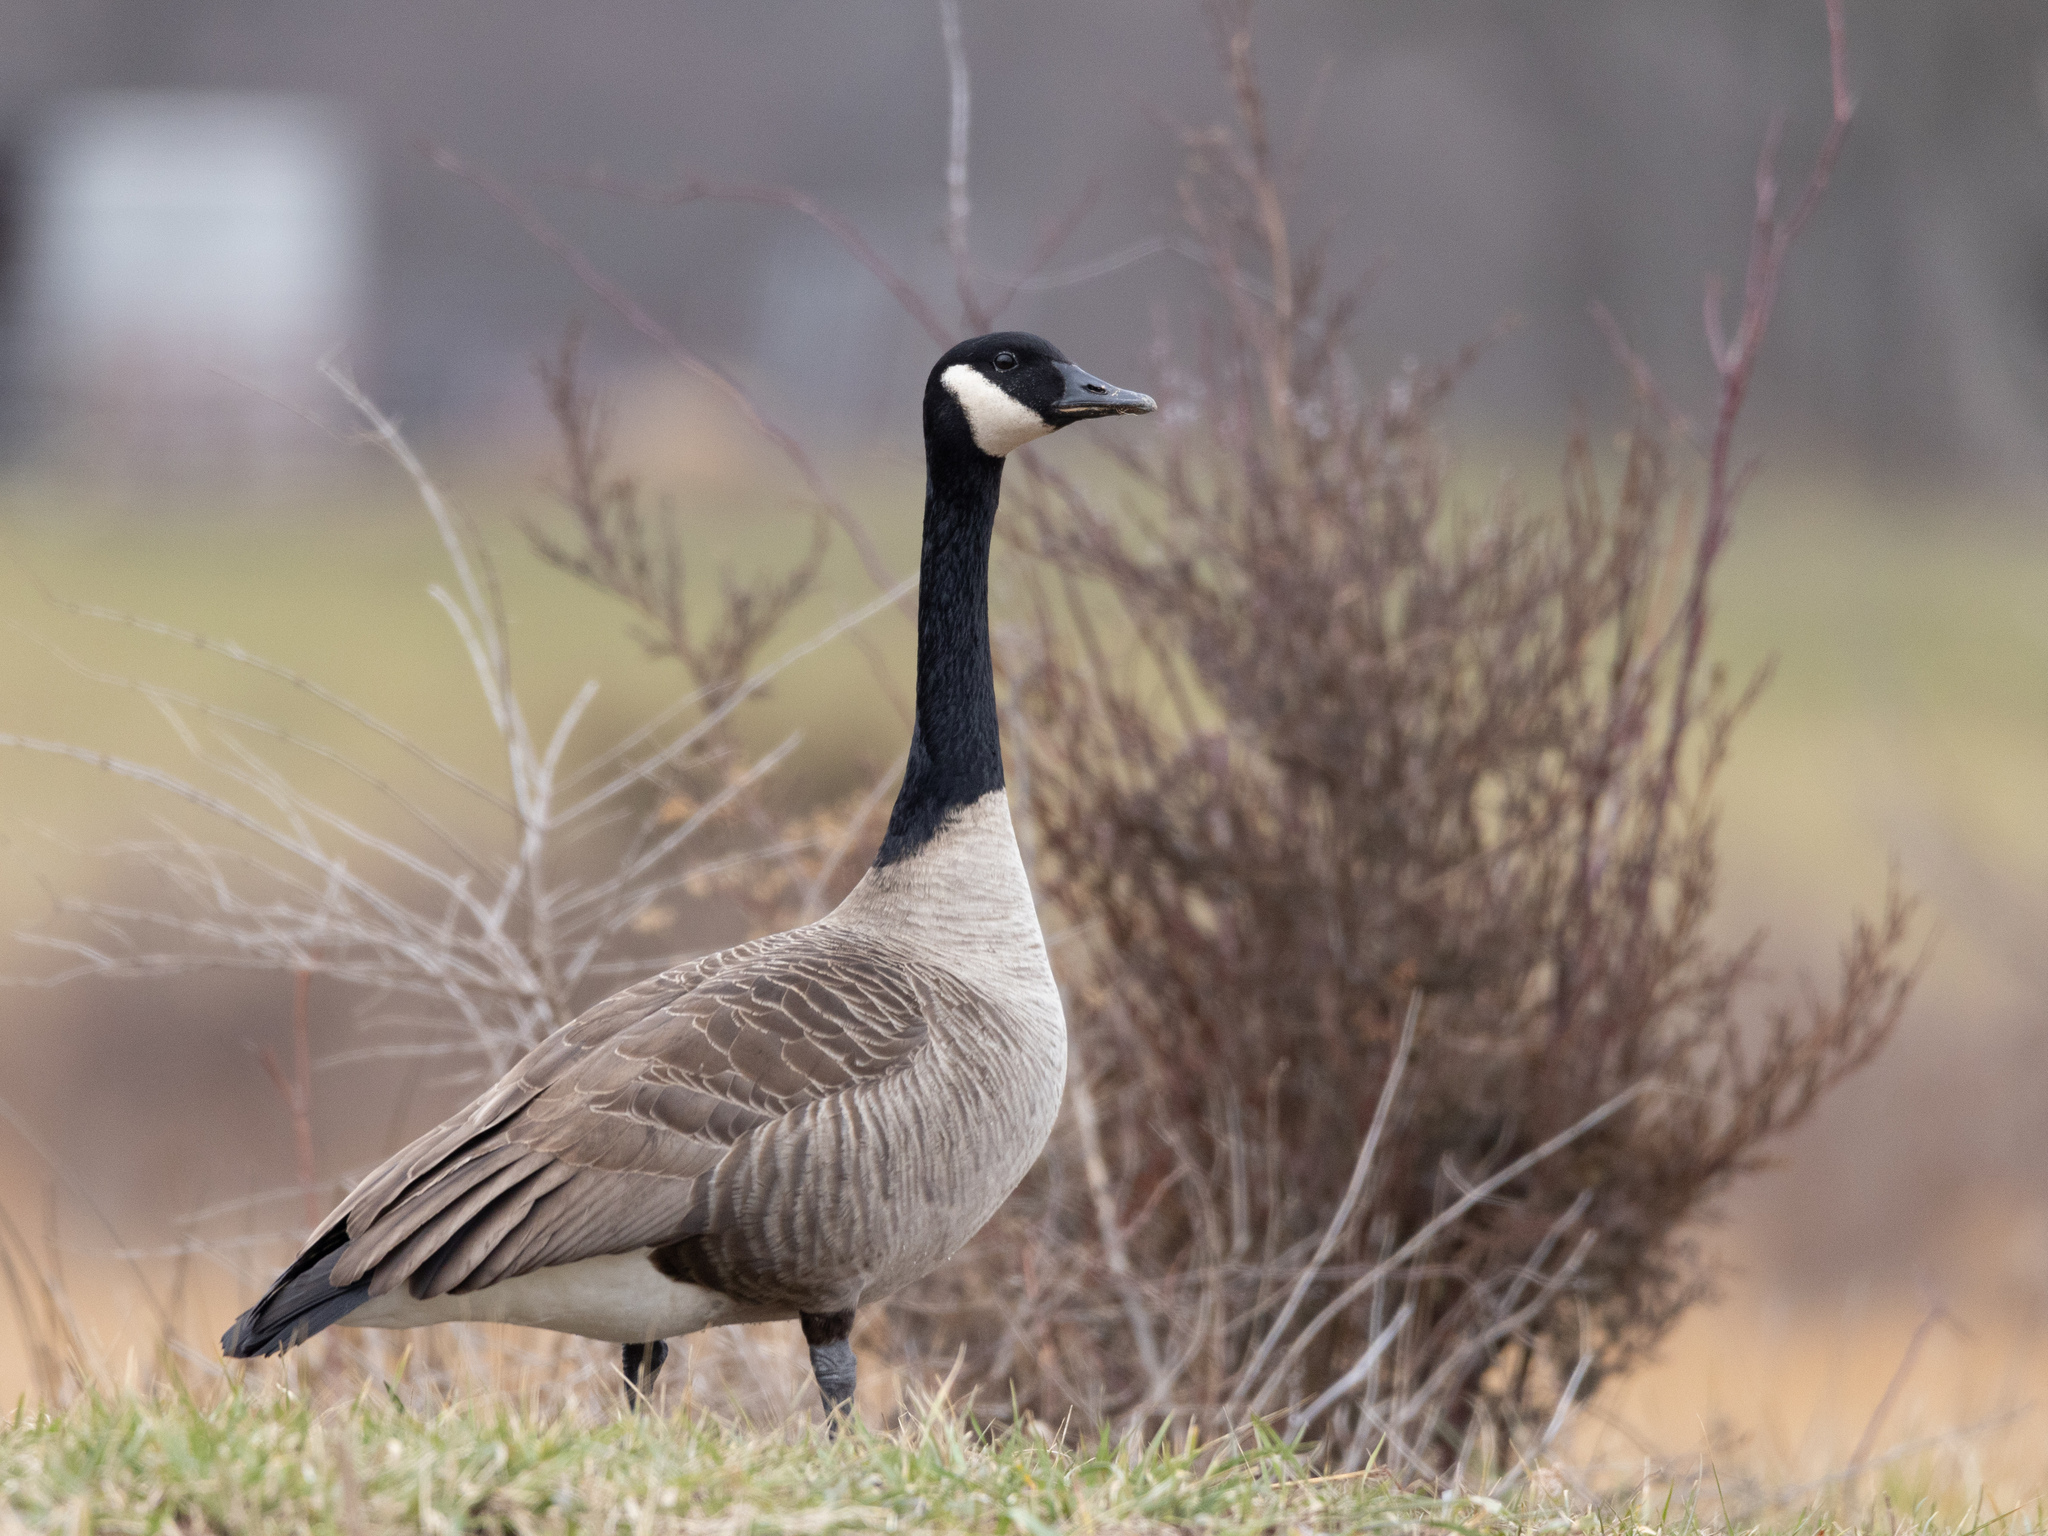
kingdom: Animalia
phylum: Chordata
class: Aves
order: Anseriformes
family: Anatidae
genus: Branta
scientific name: Branta canadensis
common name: Canada goose
